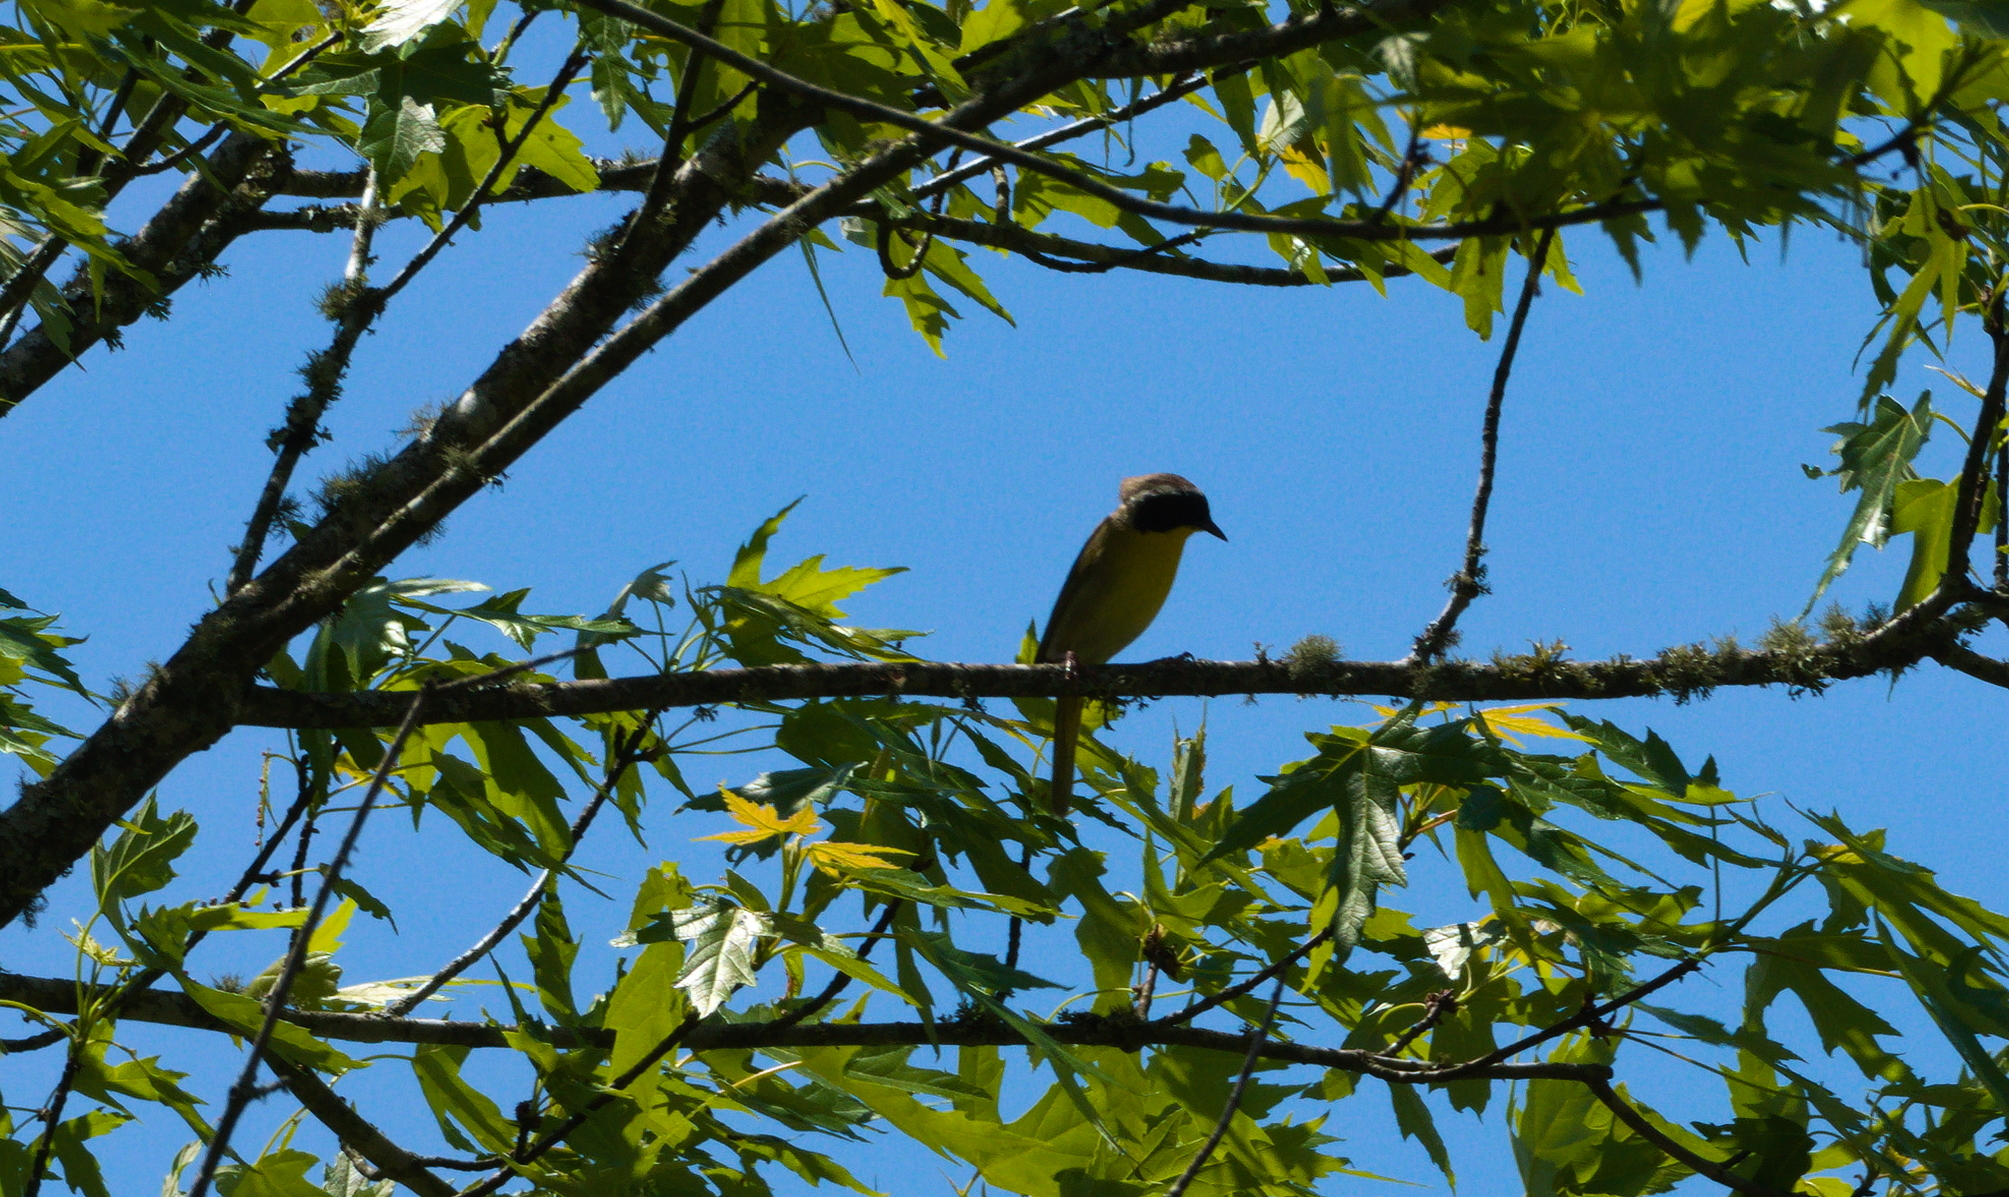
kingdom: Animalia
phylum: Chordata
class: Aves
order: Passeriformes
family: Parulidae
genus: Geothlypis
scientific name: Geothlypis trichas
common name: Common yellowthroat
